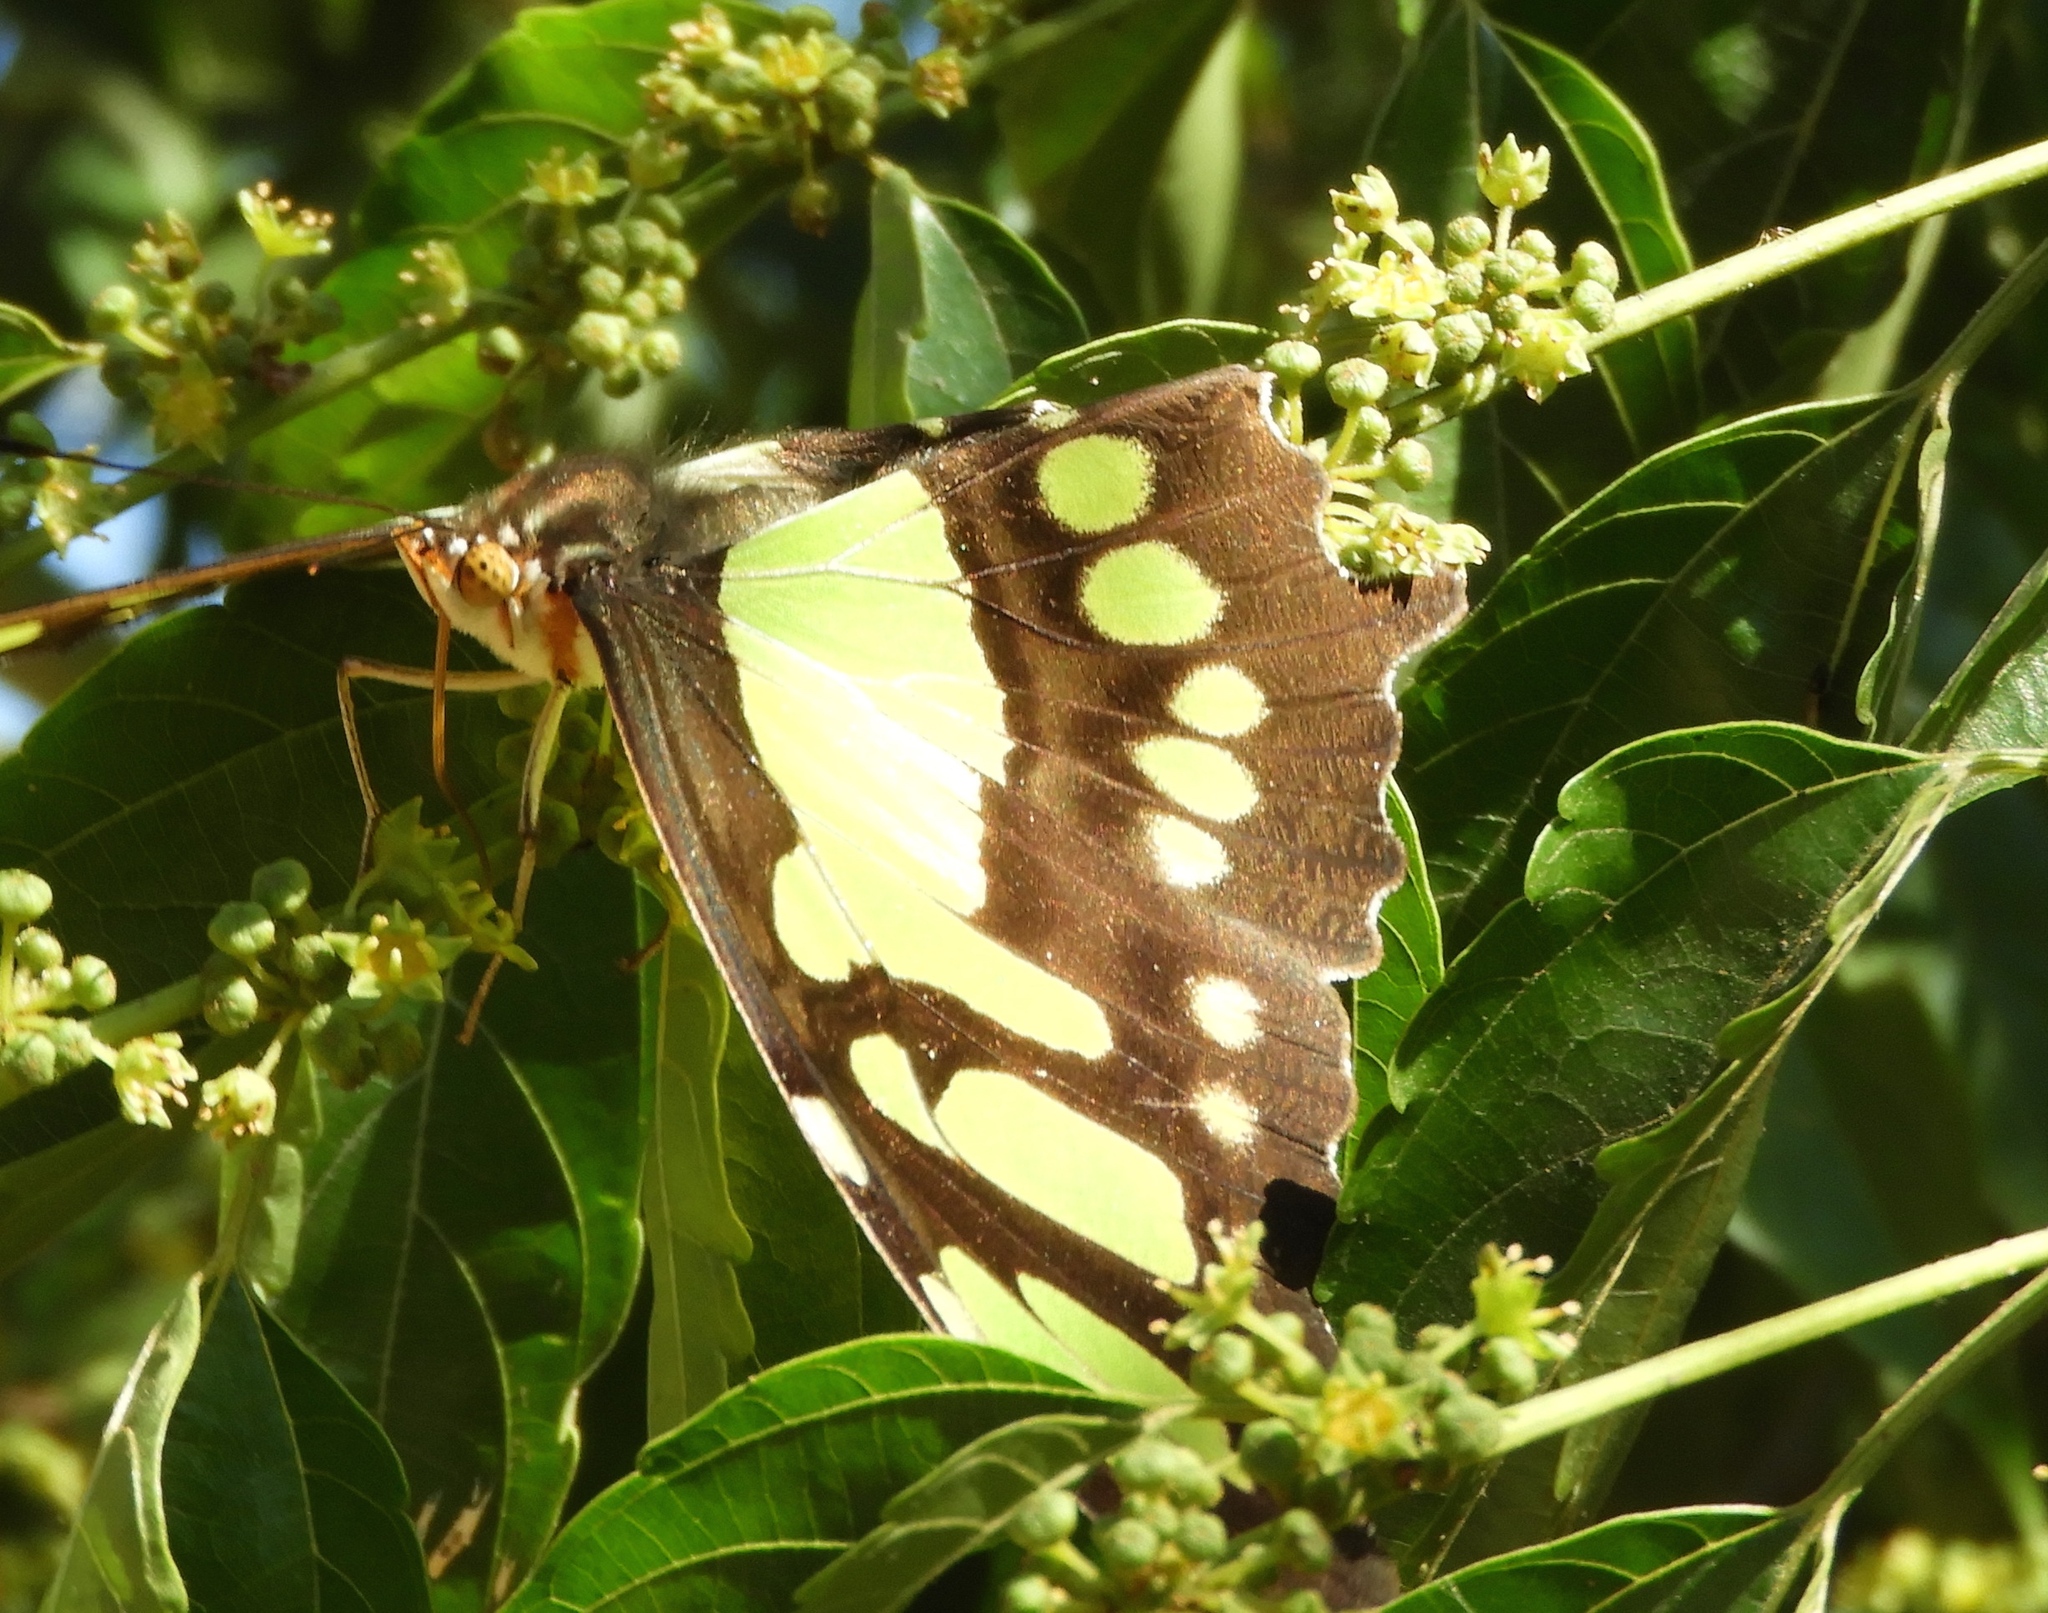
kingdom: Animalia
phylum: Arthropoda
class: Insecta
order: Lepidoptera
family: Nymphalidae
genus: Siproeta
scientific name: Siproeta stelenes
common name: Malachite
